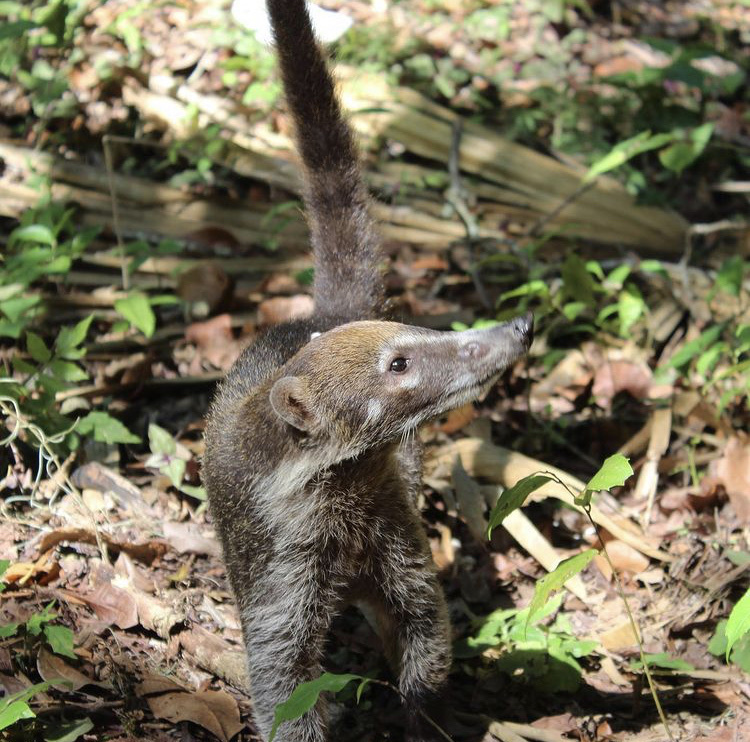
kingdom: Animalia
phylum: Chordata
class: Mammalia
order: Carnivora
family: Procyonidae
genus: Nasua
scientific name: Nasua narica
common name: White-nosed coati
